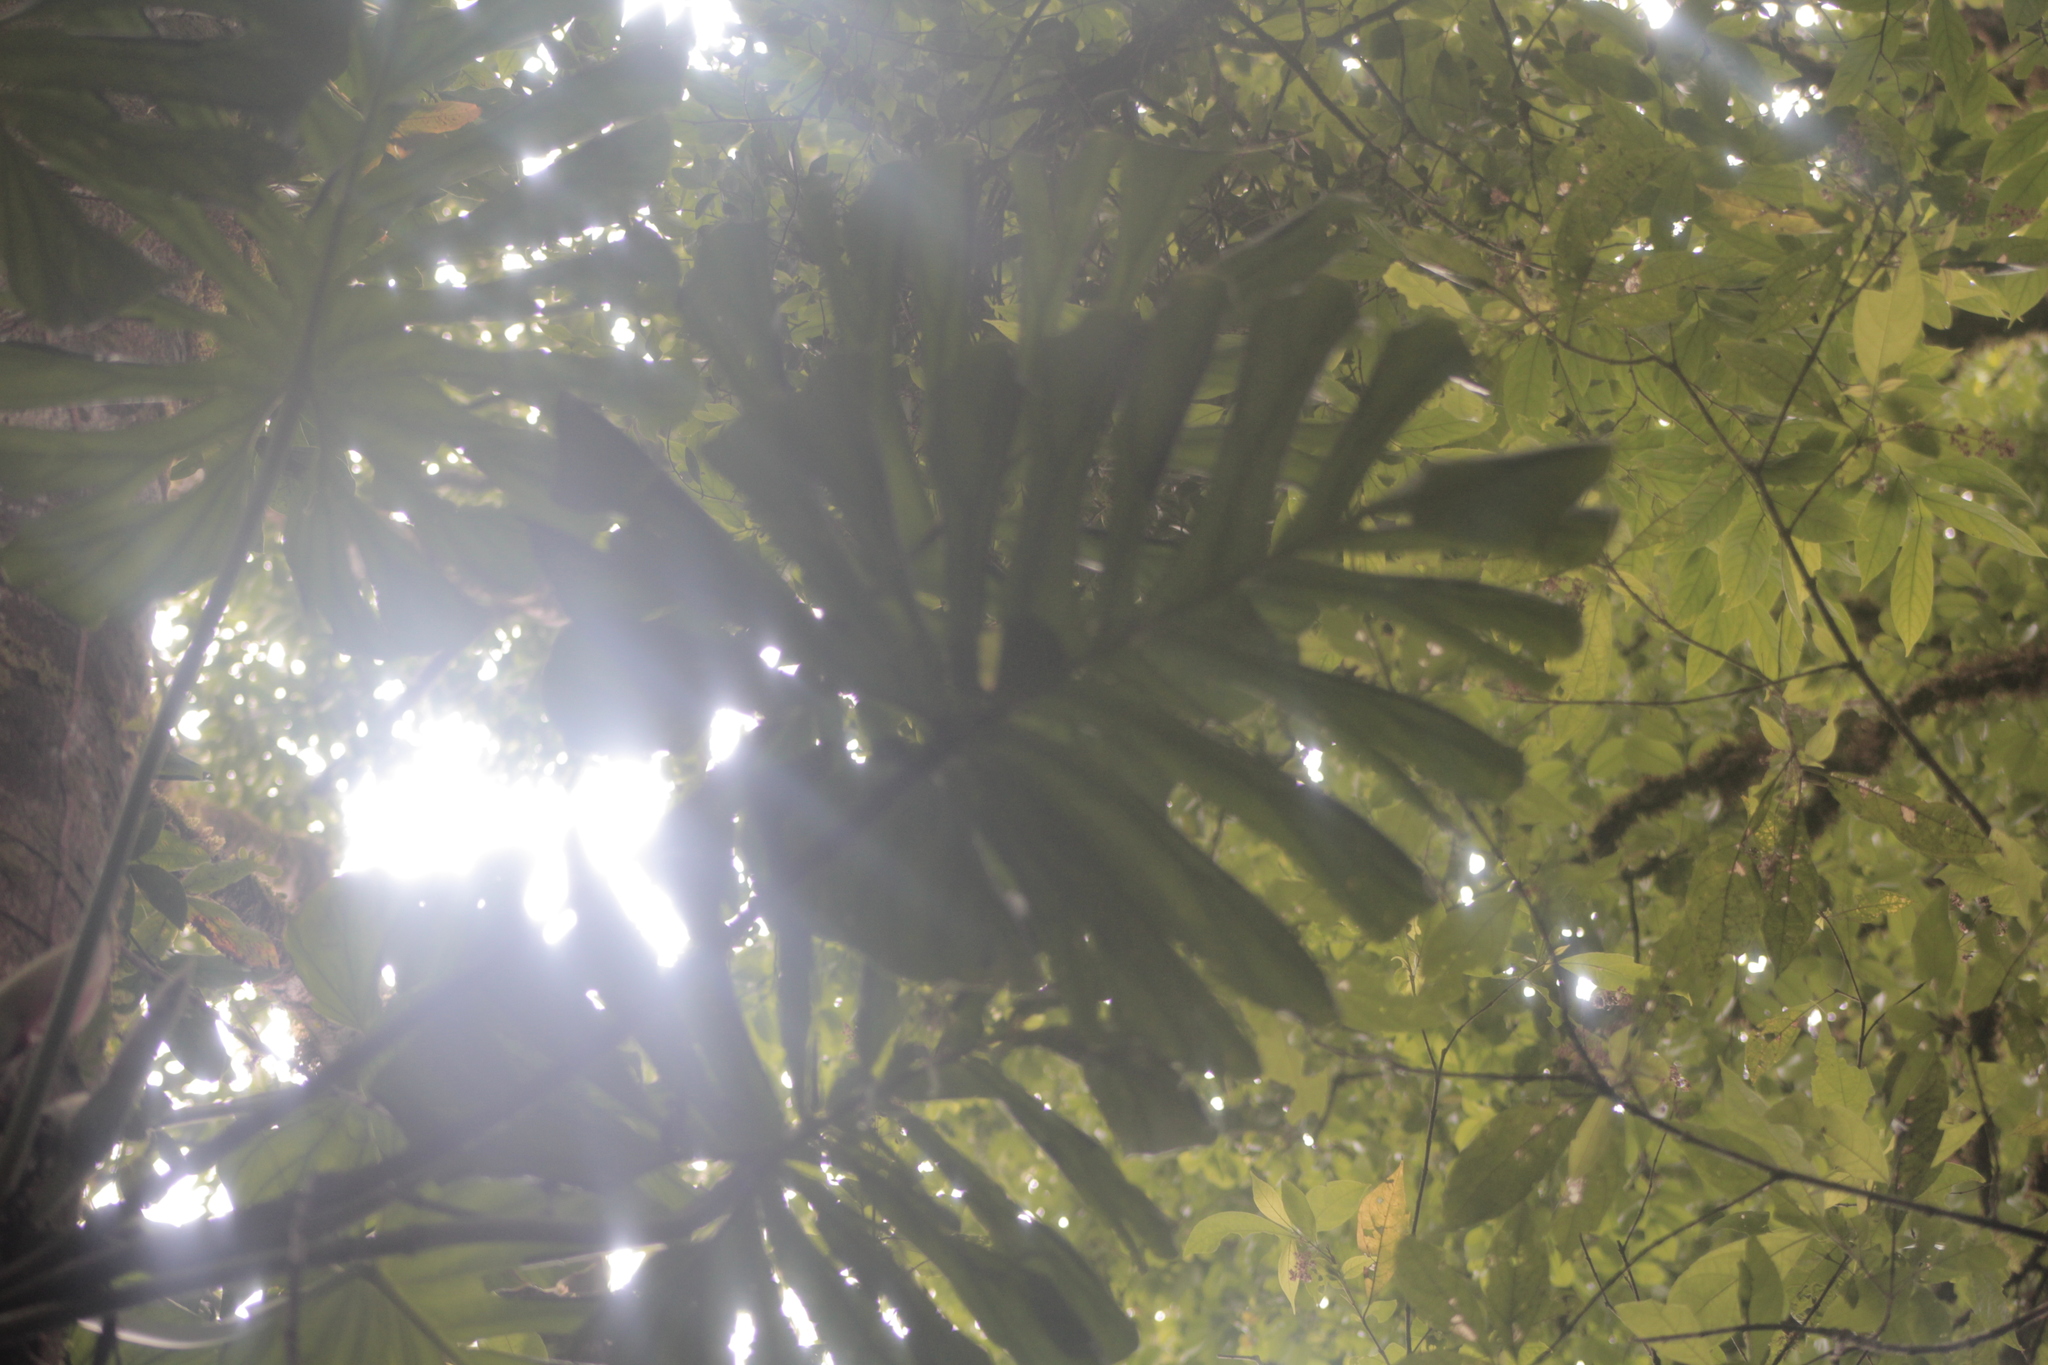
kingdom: Plantae
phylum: Tracheophyta
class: Liliopsida
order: Alismatales
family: Araceae
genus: Philodendron
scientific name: Philodendron findens
